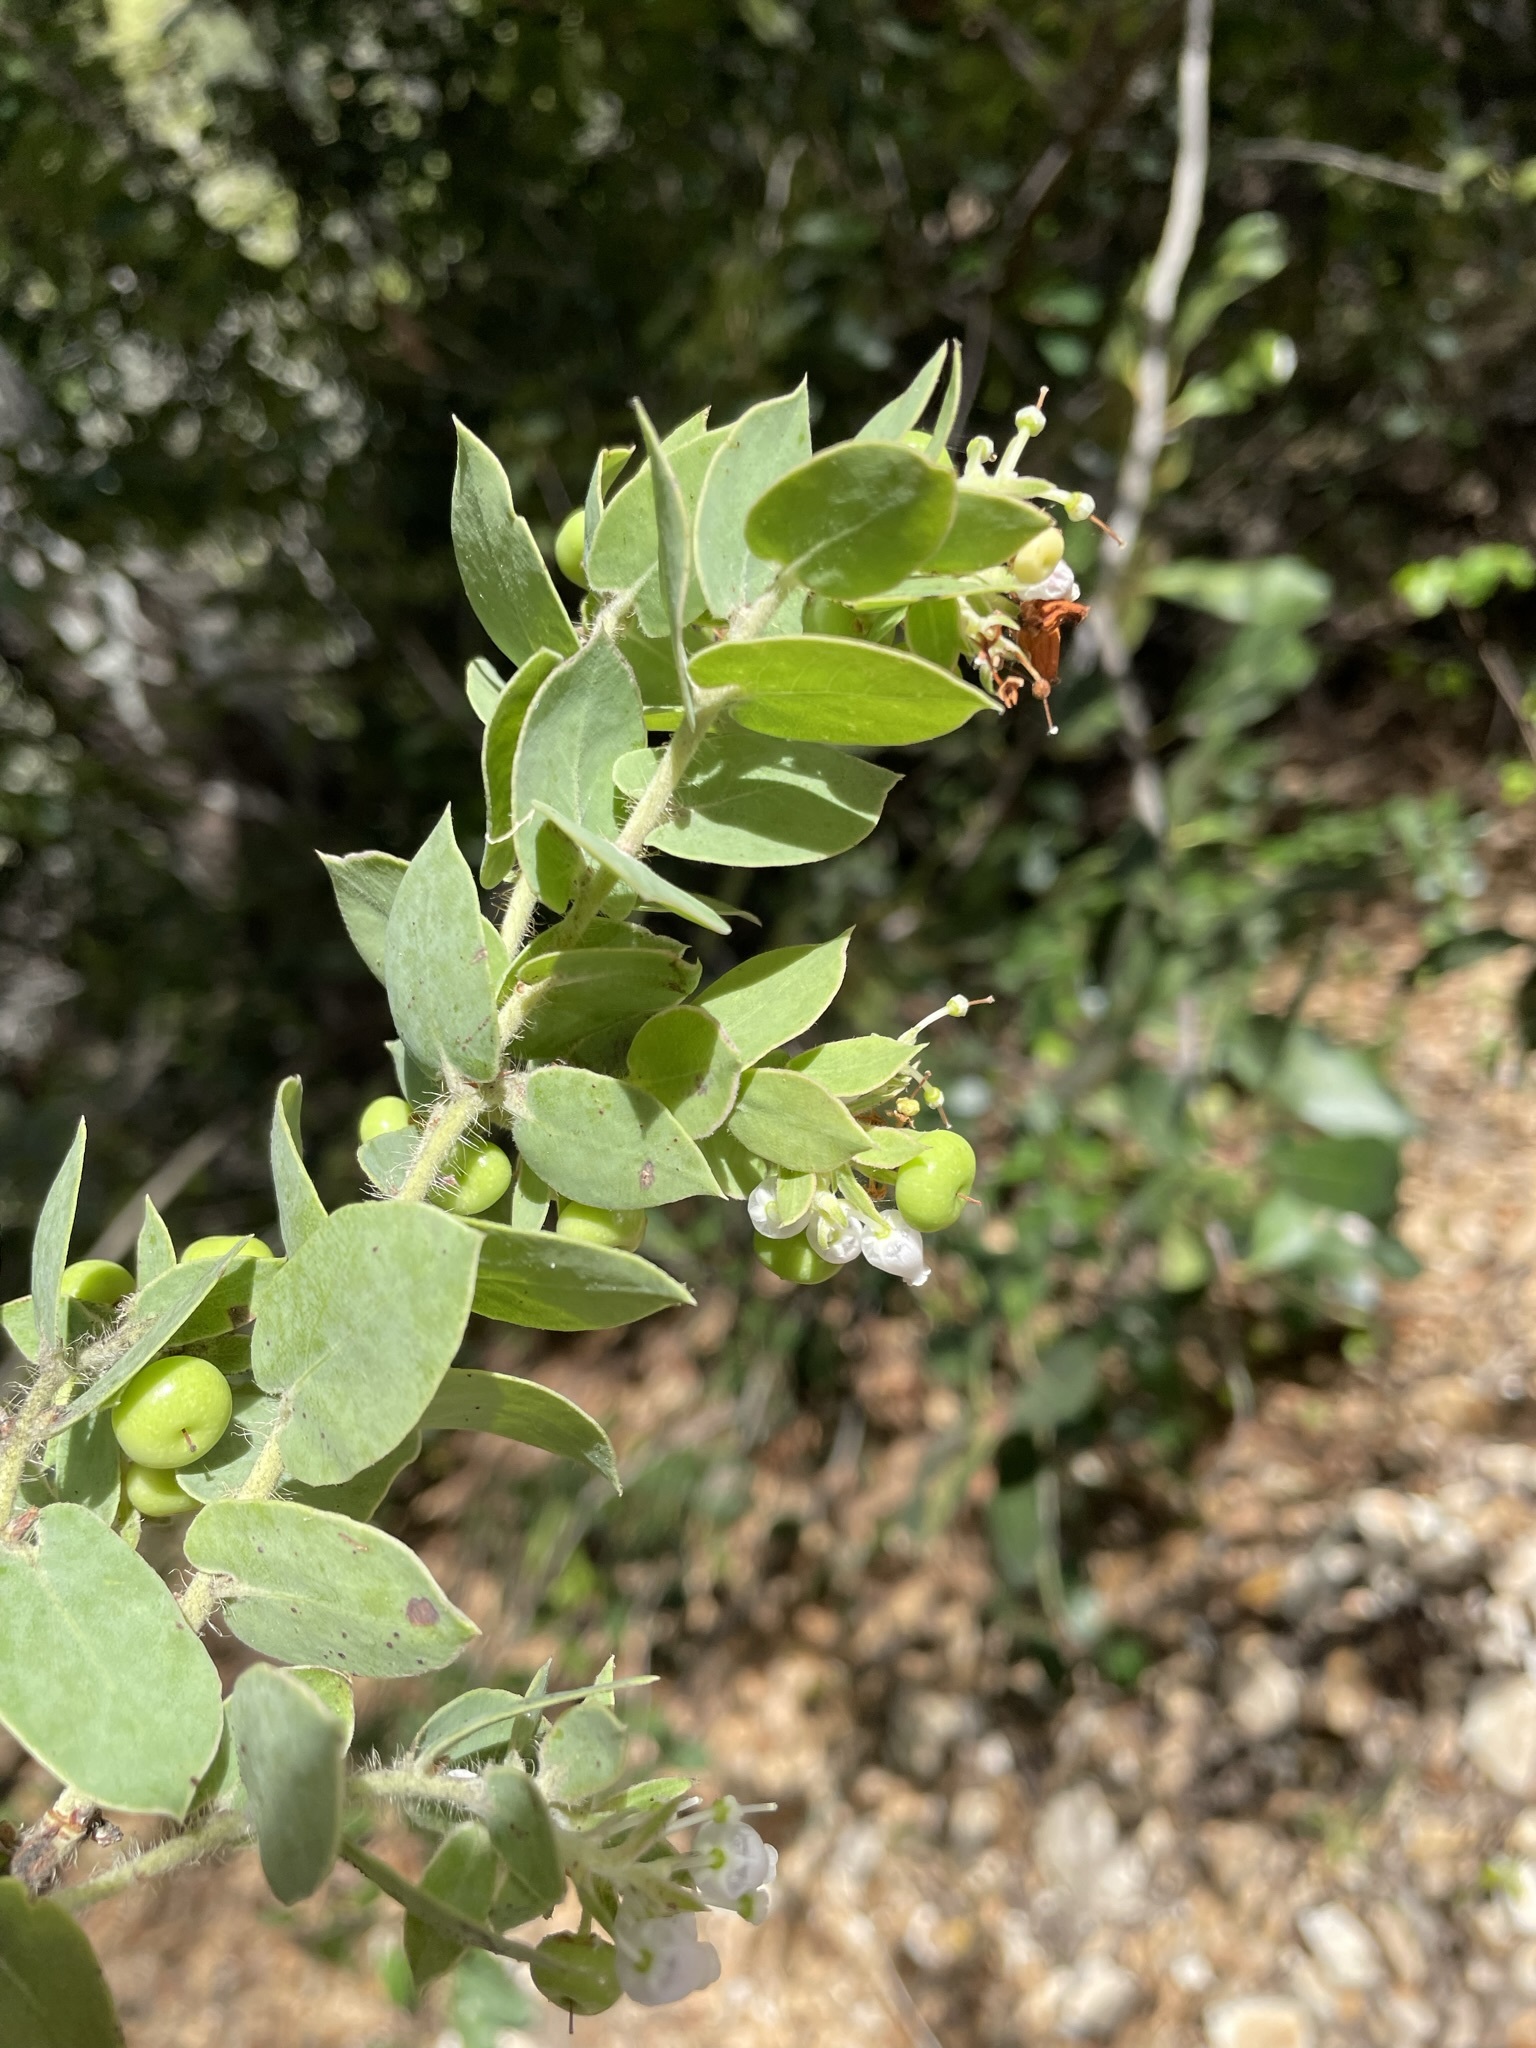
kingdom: Plantae
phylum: Tracheophyta
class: Magnoliopsida
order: Ericales
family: Ericaceae
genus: Arctostaphylos
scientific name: Arctostaphylos pechoensis
